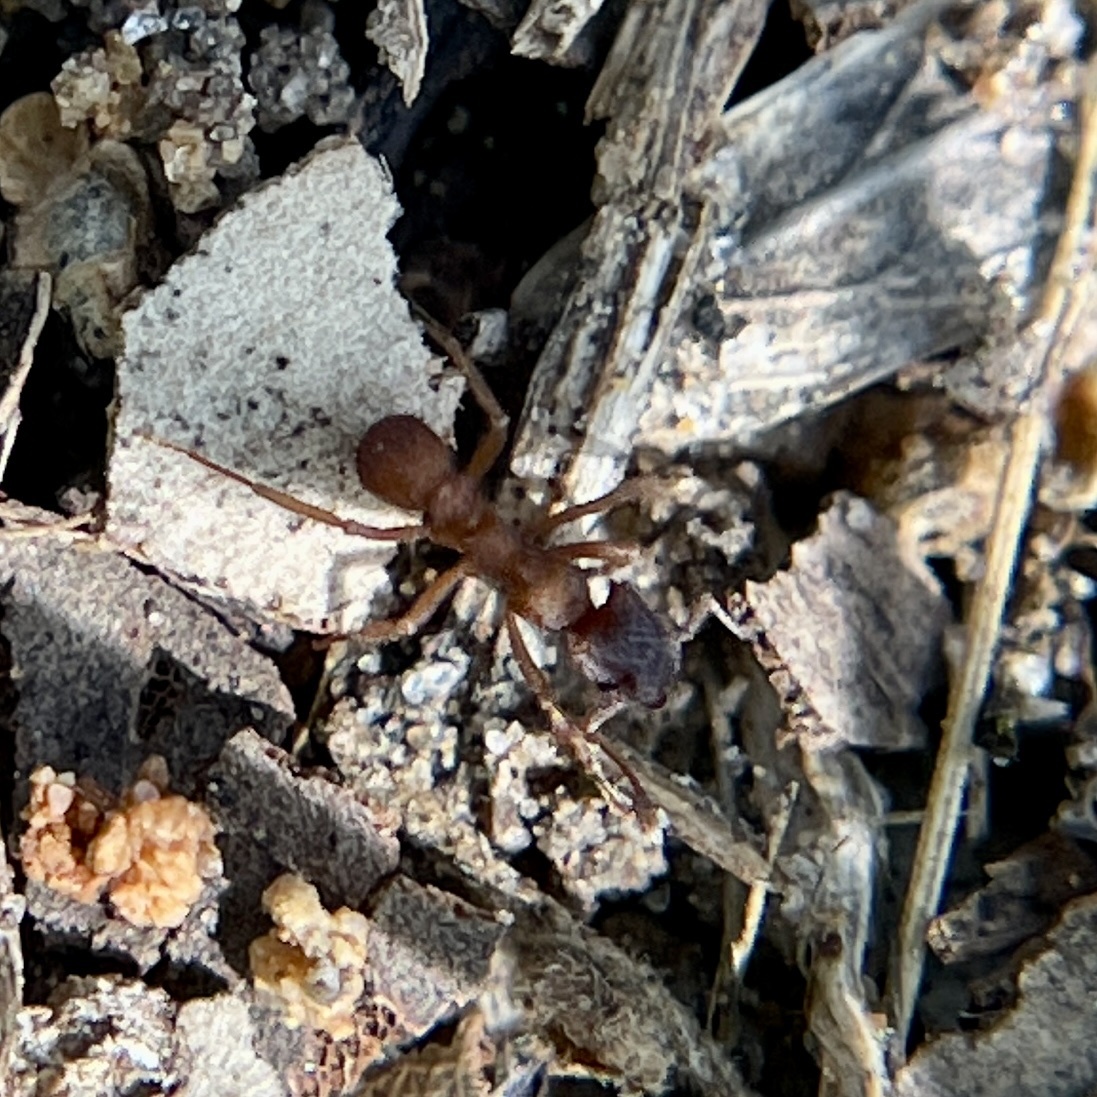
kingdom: Animalia
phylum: Arthropoda
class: Insecta
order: Hymenoptera
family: Formicidae
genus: Mycetomoellerius
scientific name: Mycetomoellerius
